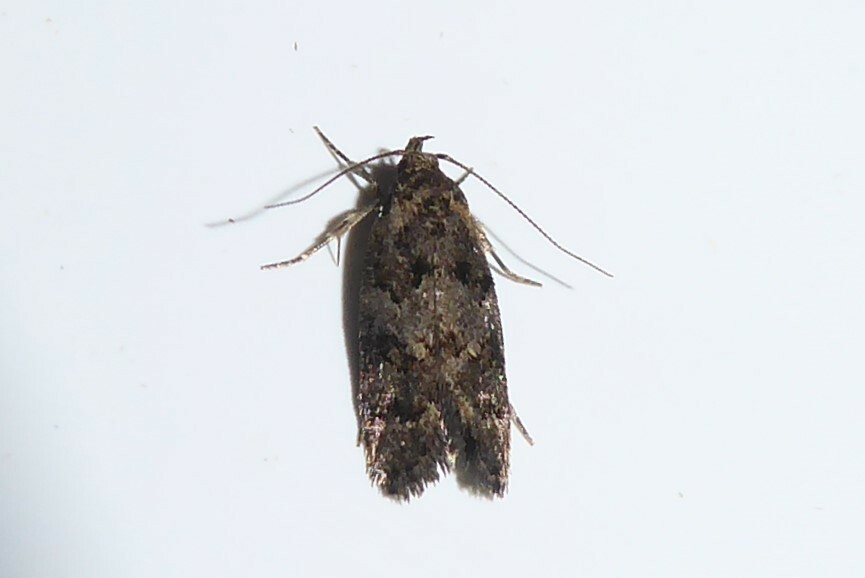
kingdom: Animalia
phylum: Arthropoda
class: Insecta
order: Lepidoptera
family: Oecophoridae
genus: Trachypepla
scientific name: Trachypepla anastrella
